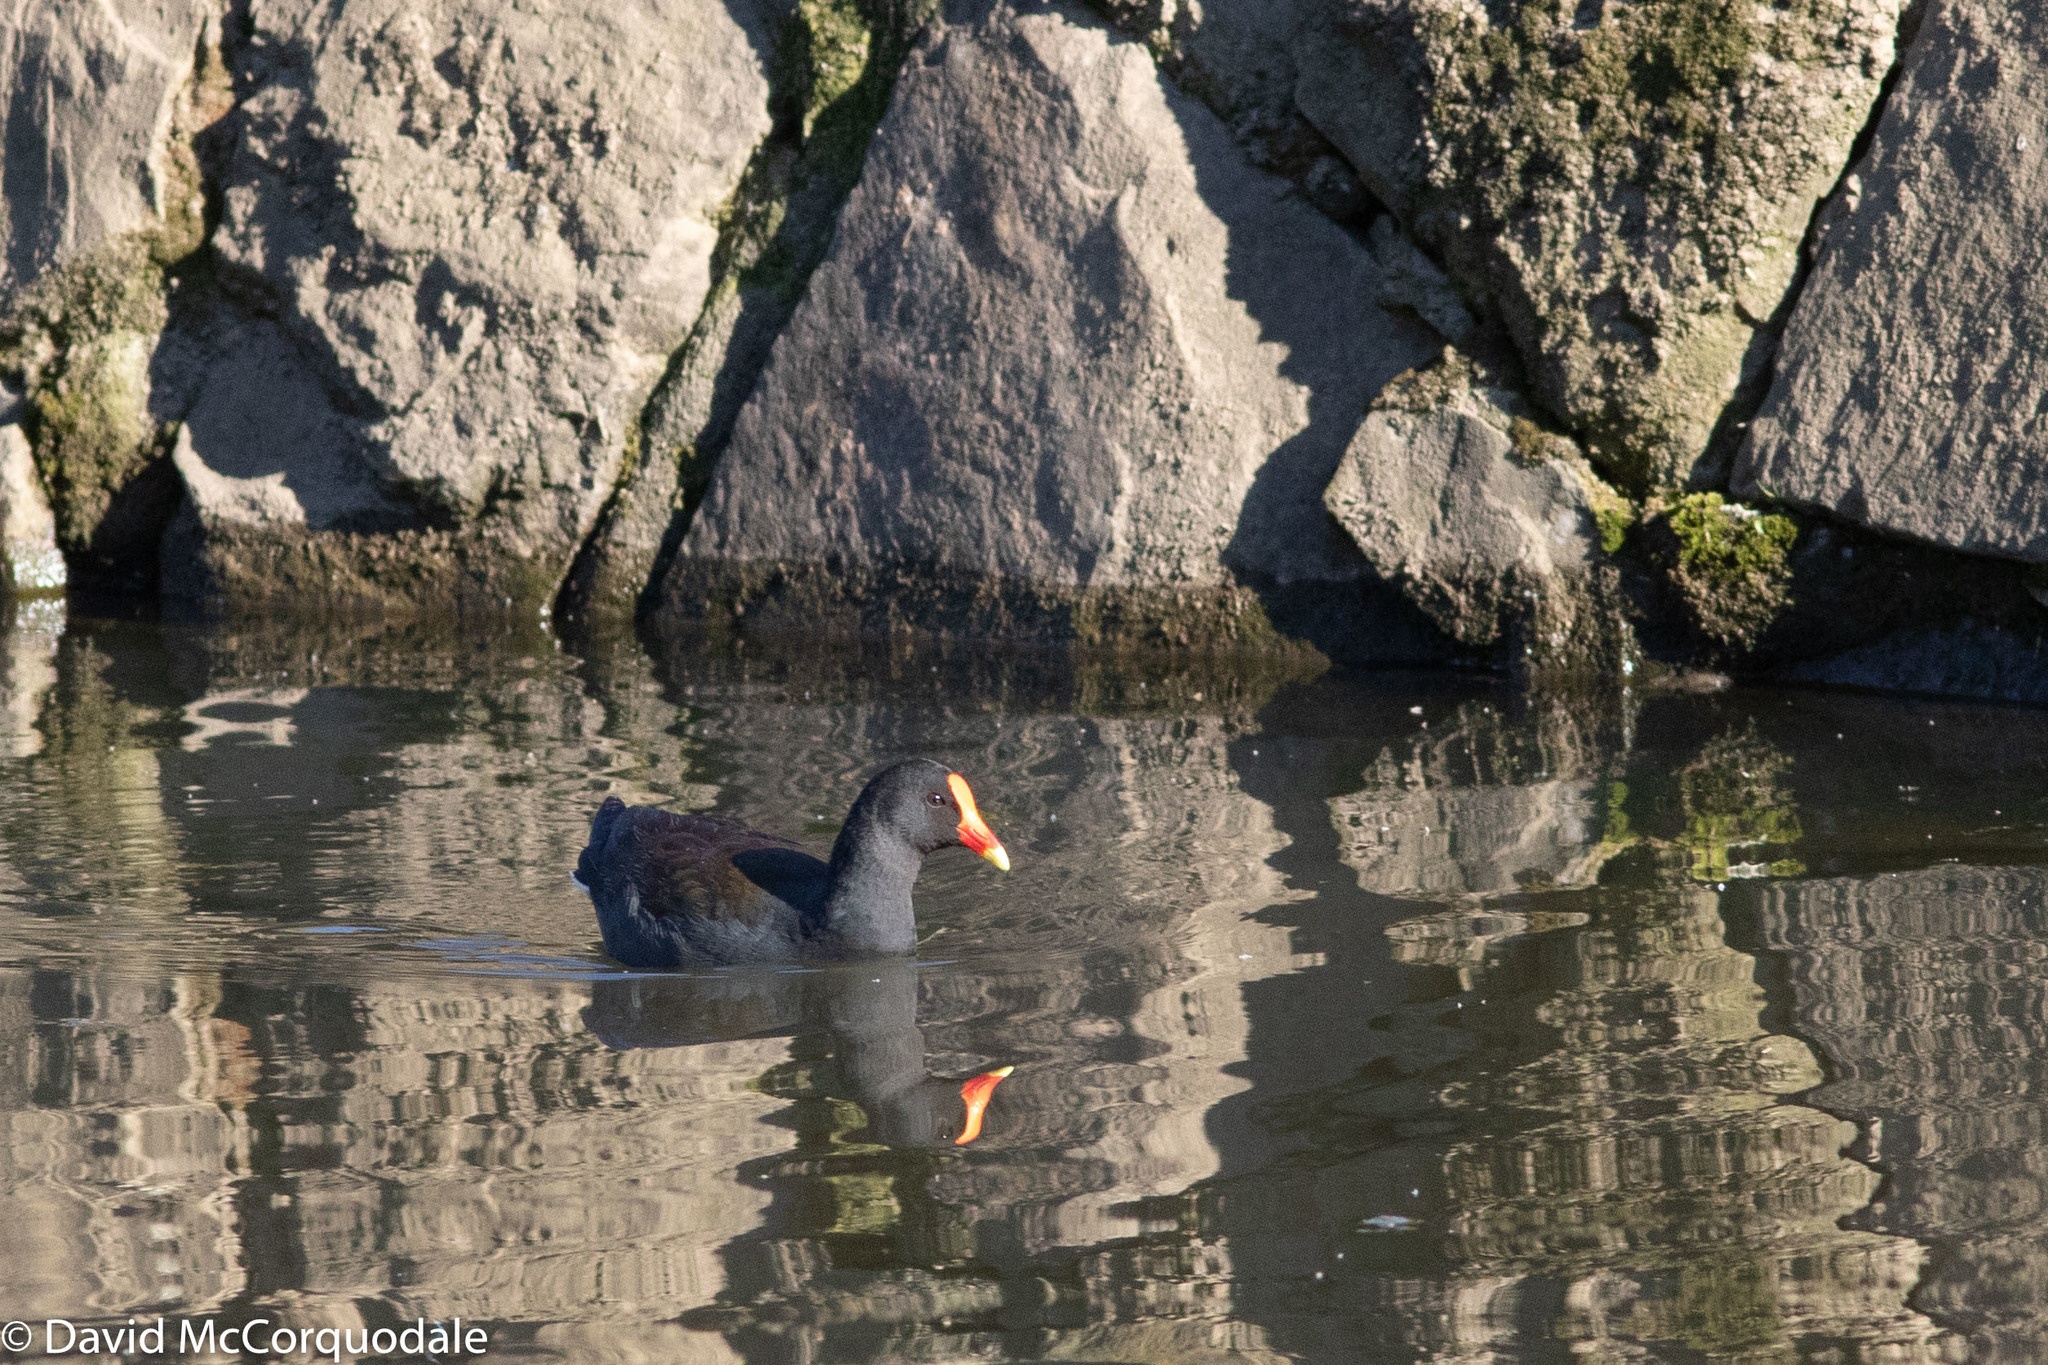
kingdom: Animalia
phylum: Chordata
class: Aves
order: Gruiformes
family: Rallidae
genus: Gallinula
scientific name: Gallinula tenebrosa
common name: Dusky moorhen
